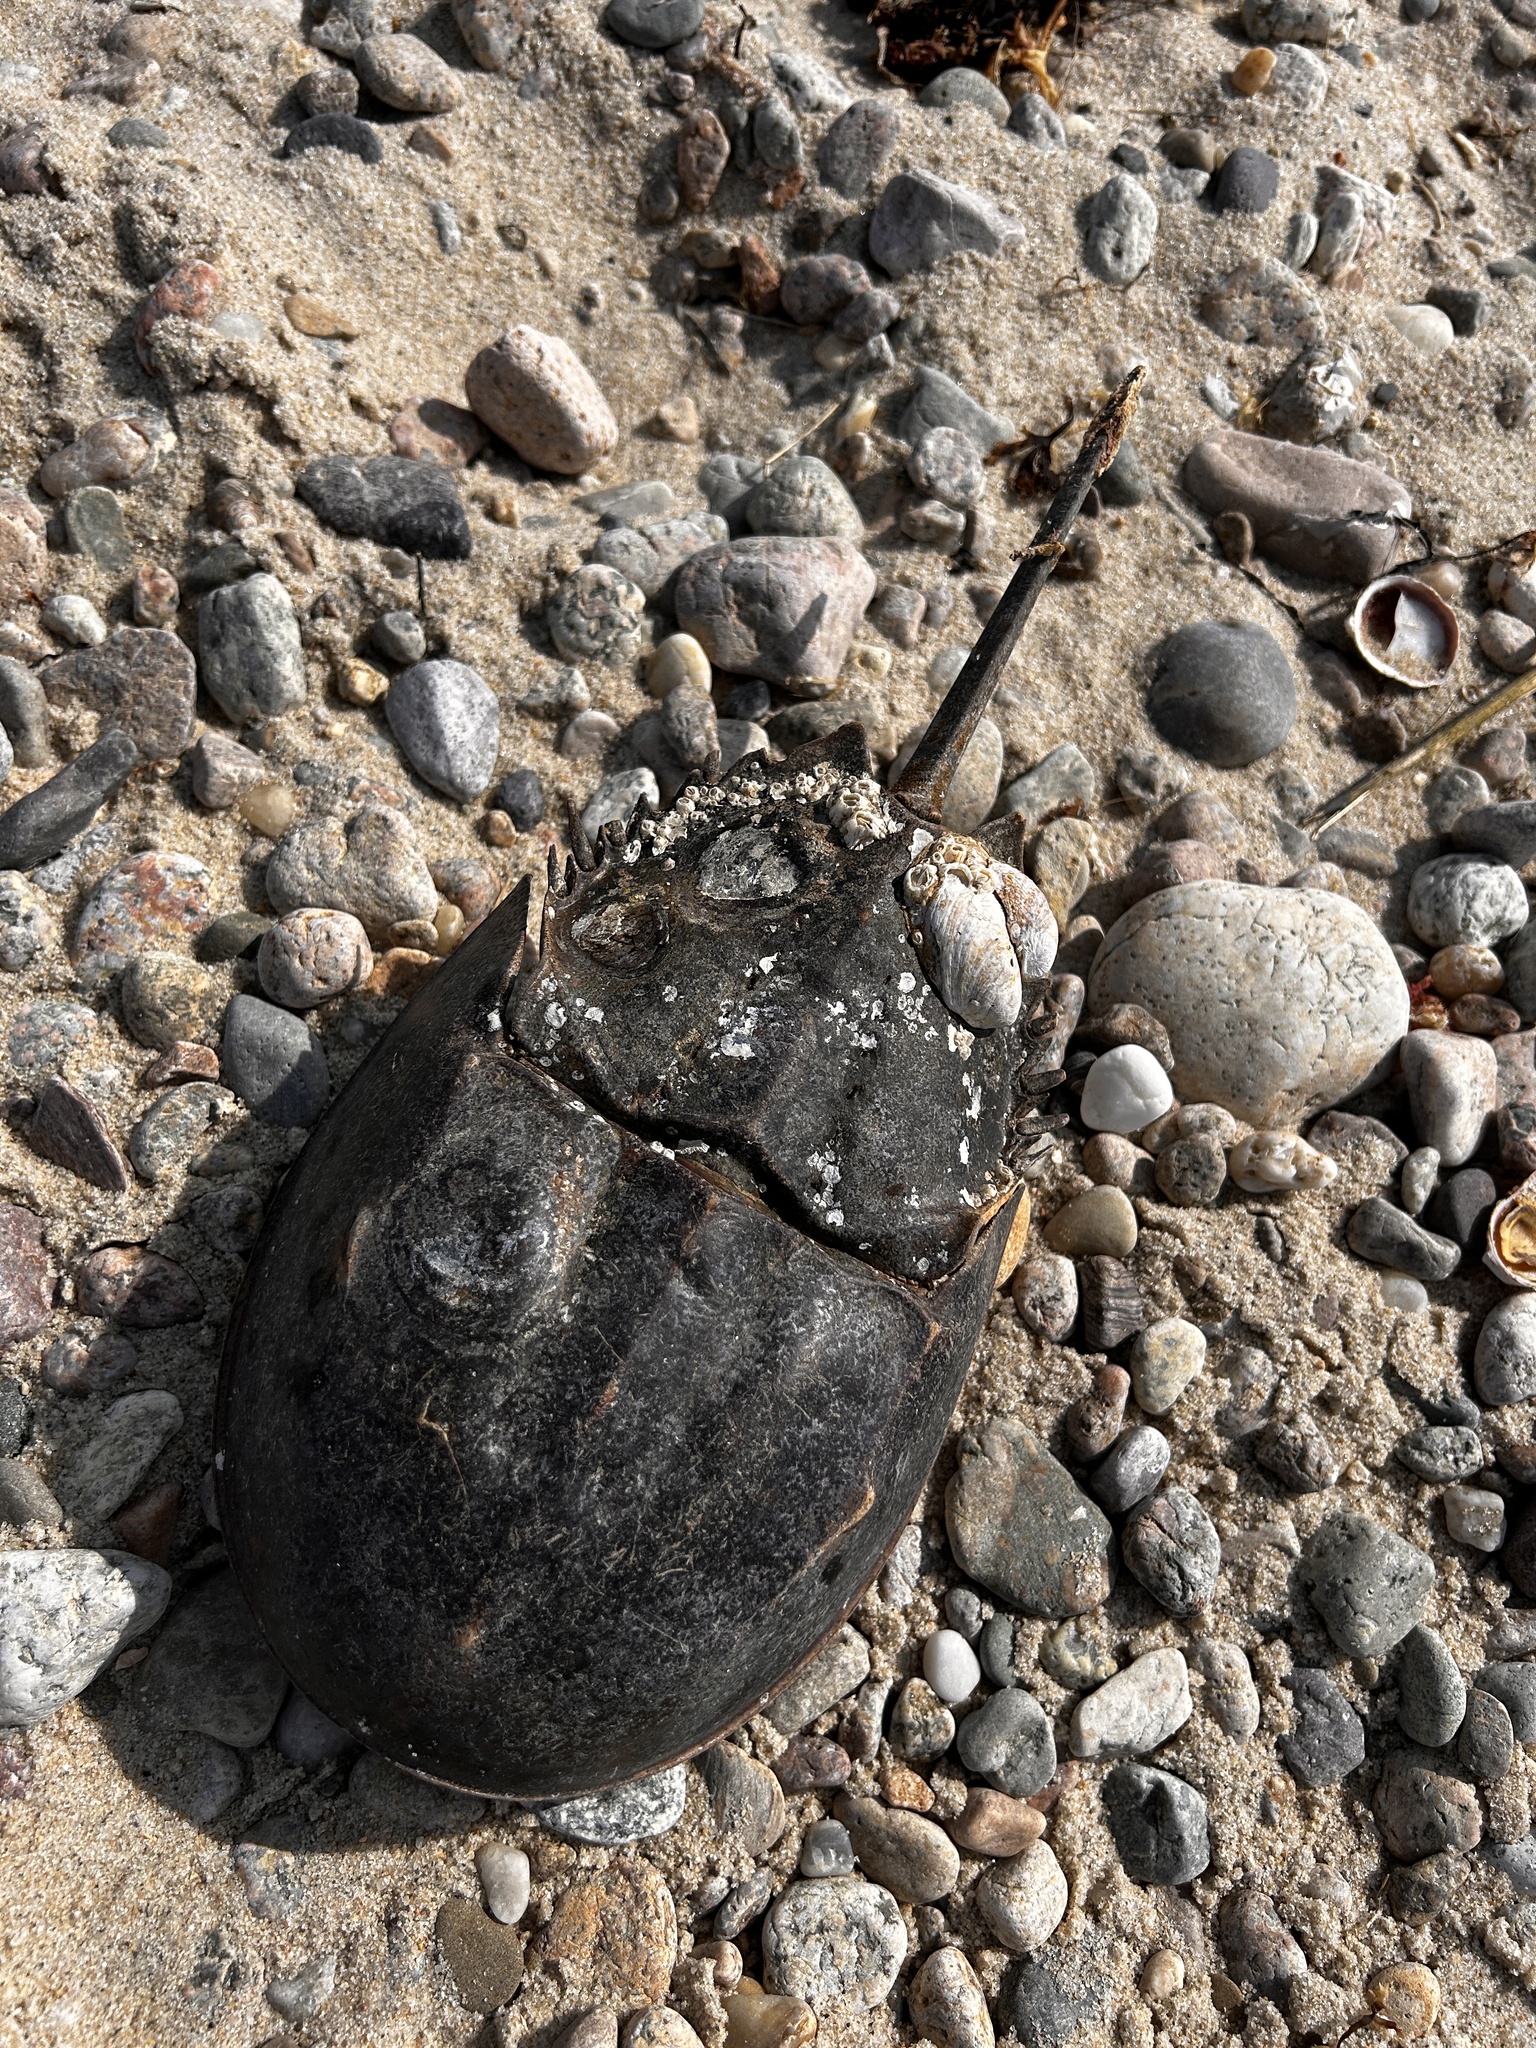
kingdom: Animalia
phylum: Arthropoda
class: Merostomata
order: Xiphosurida
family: Limulidae
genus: Limulus
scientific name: Limulus polyphemus
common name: Horseshoe crab
